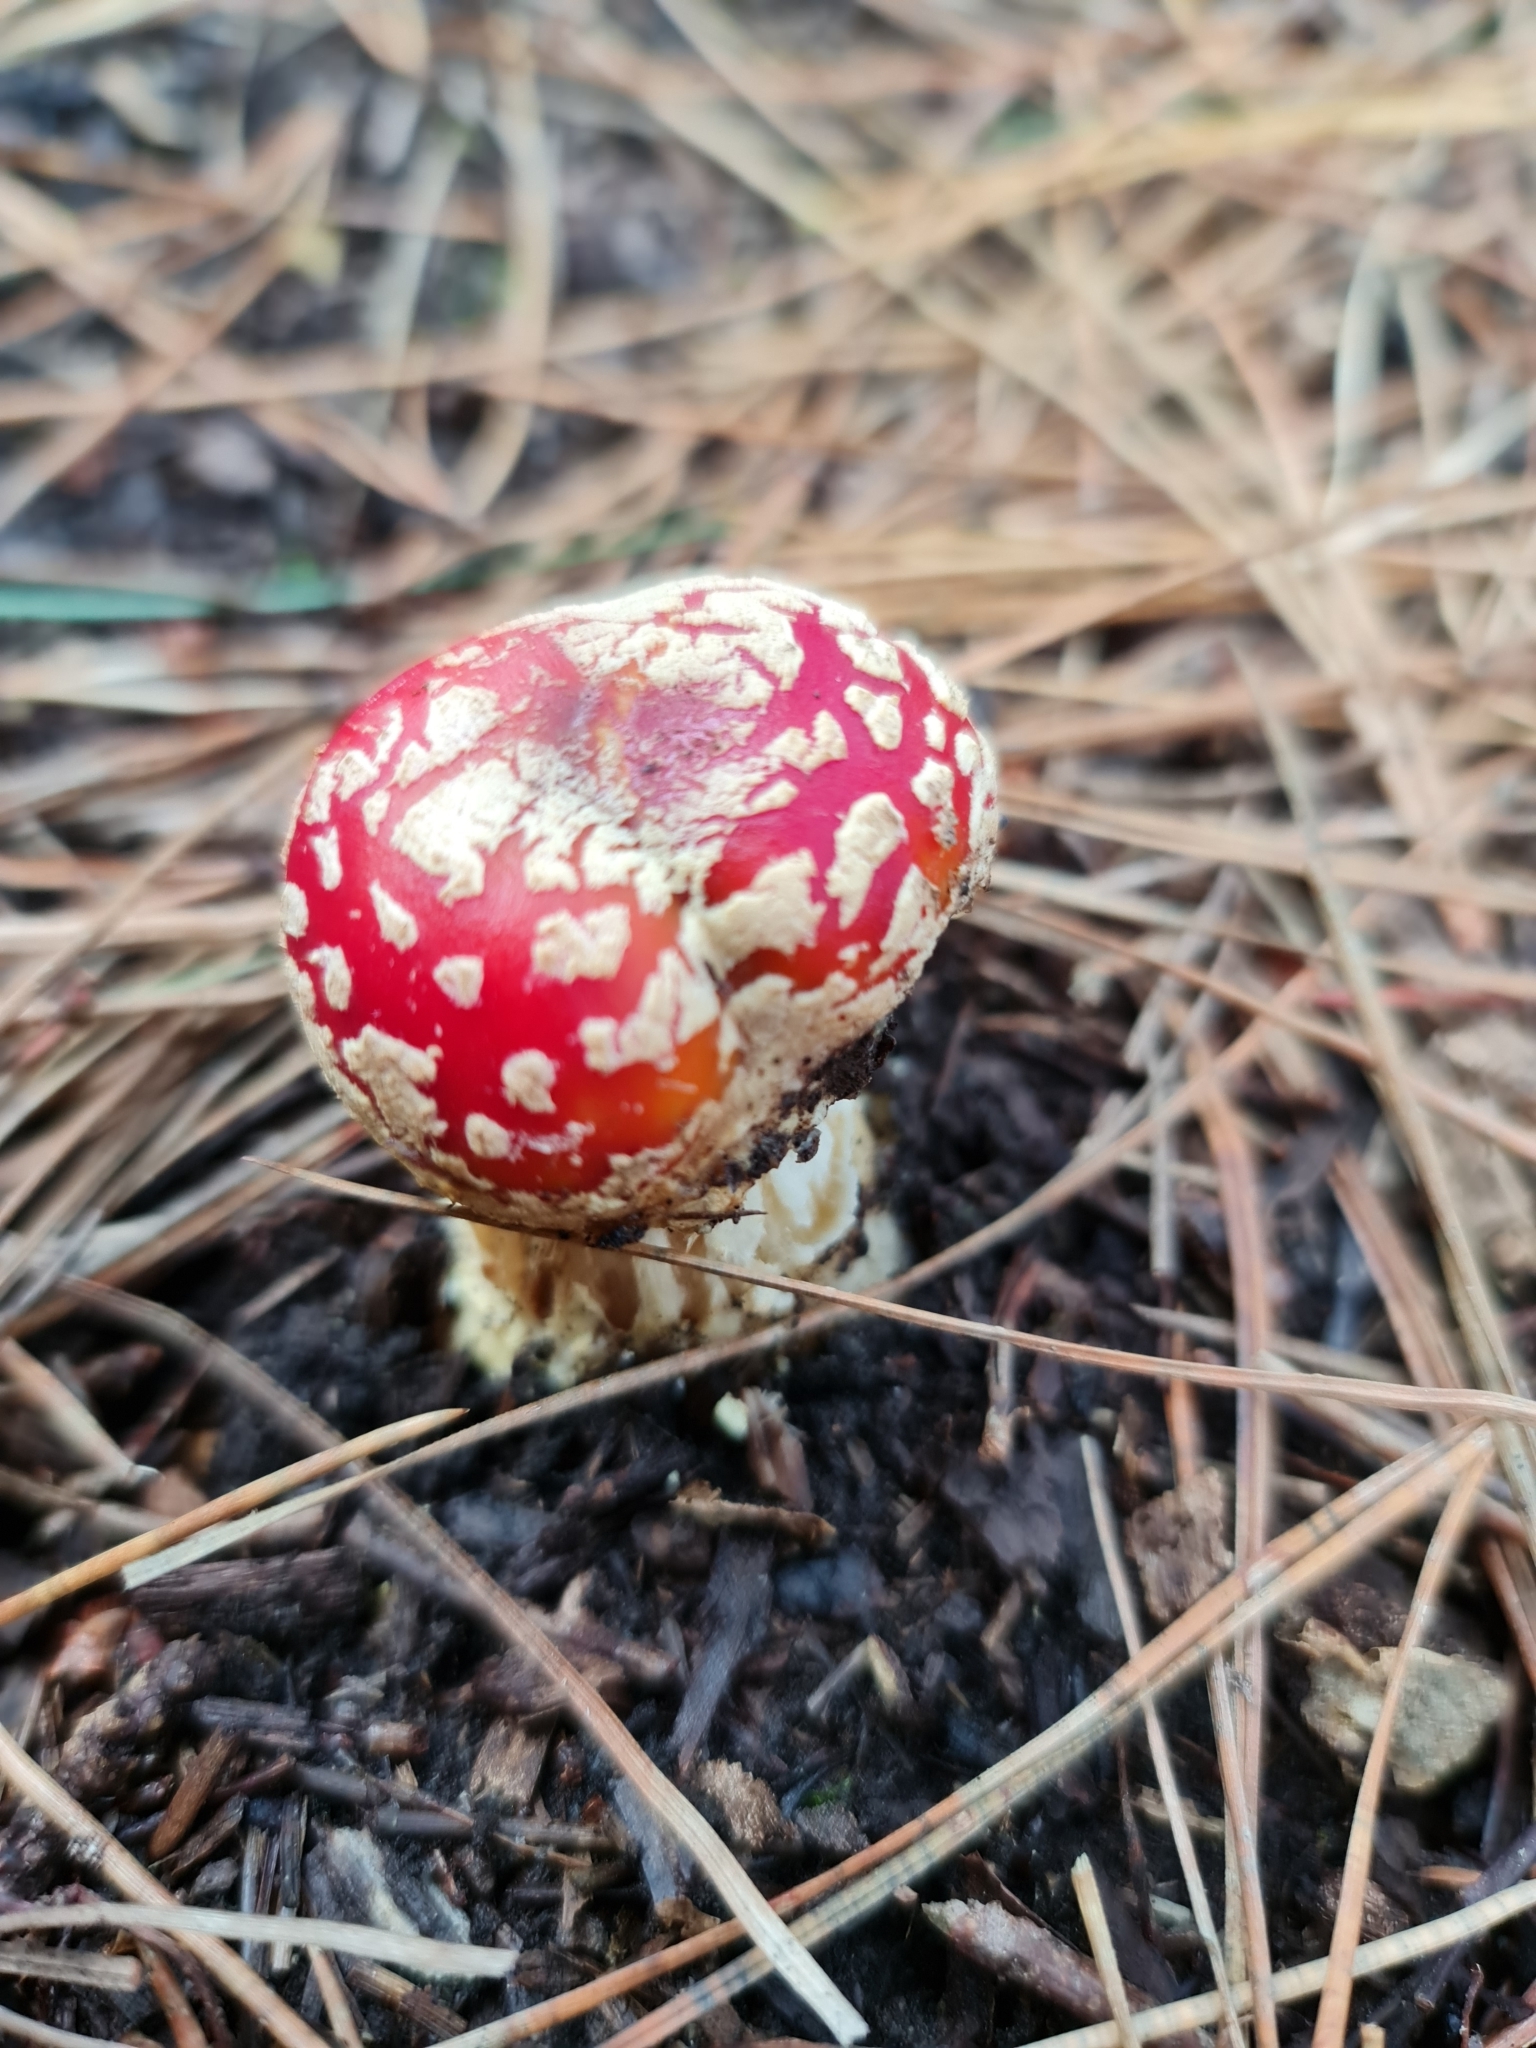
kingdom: Fungi
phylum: Basidiomycota
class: Agaricomycetes
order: Agaricales
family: Amanitaceae
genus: Amanita
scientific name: Amanita muscaria
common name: Fly agaric
